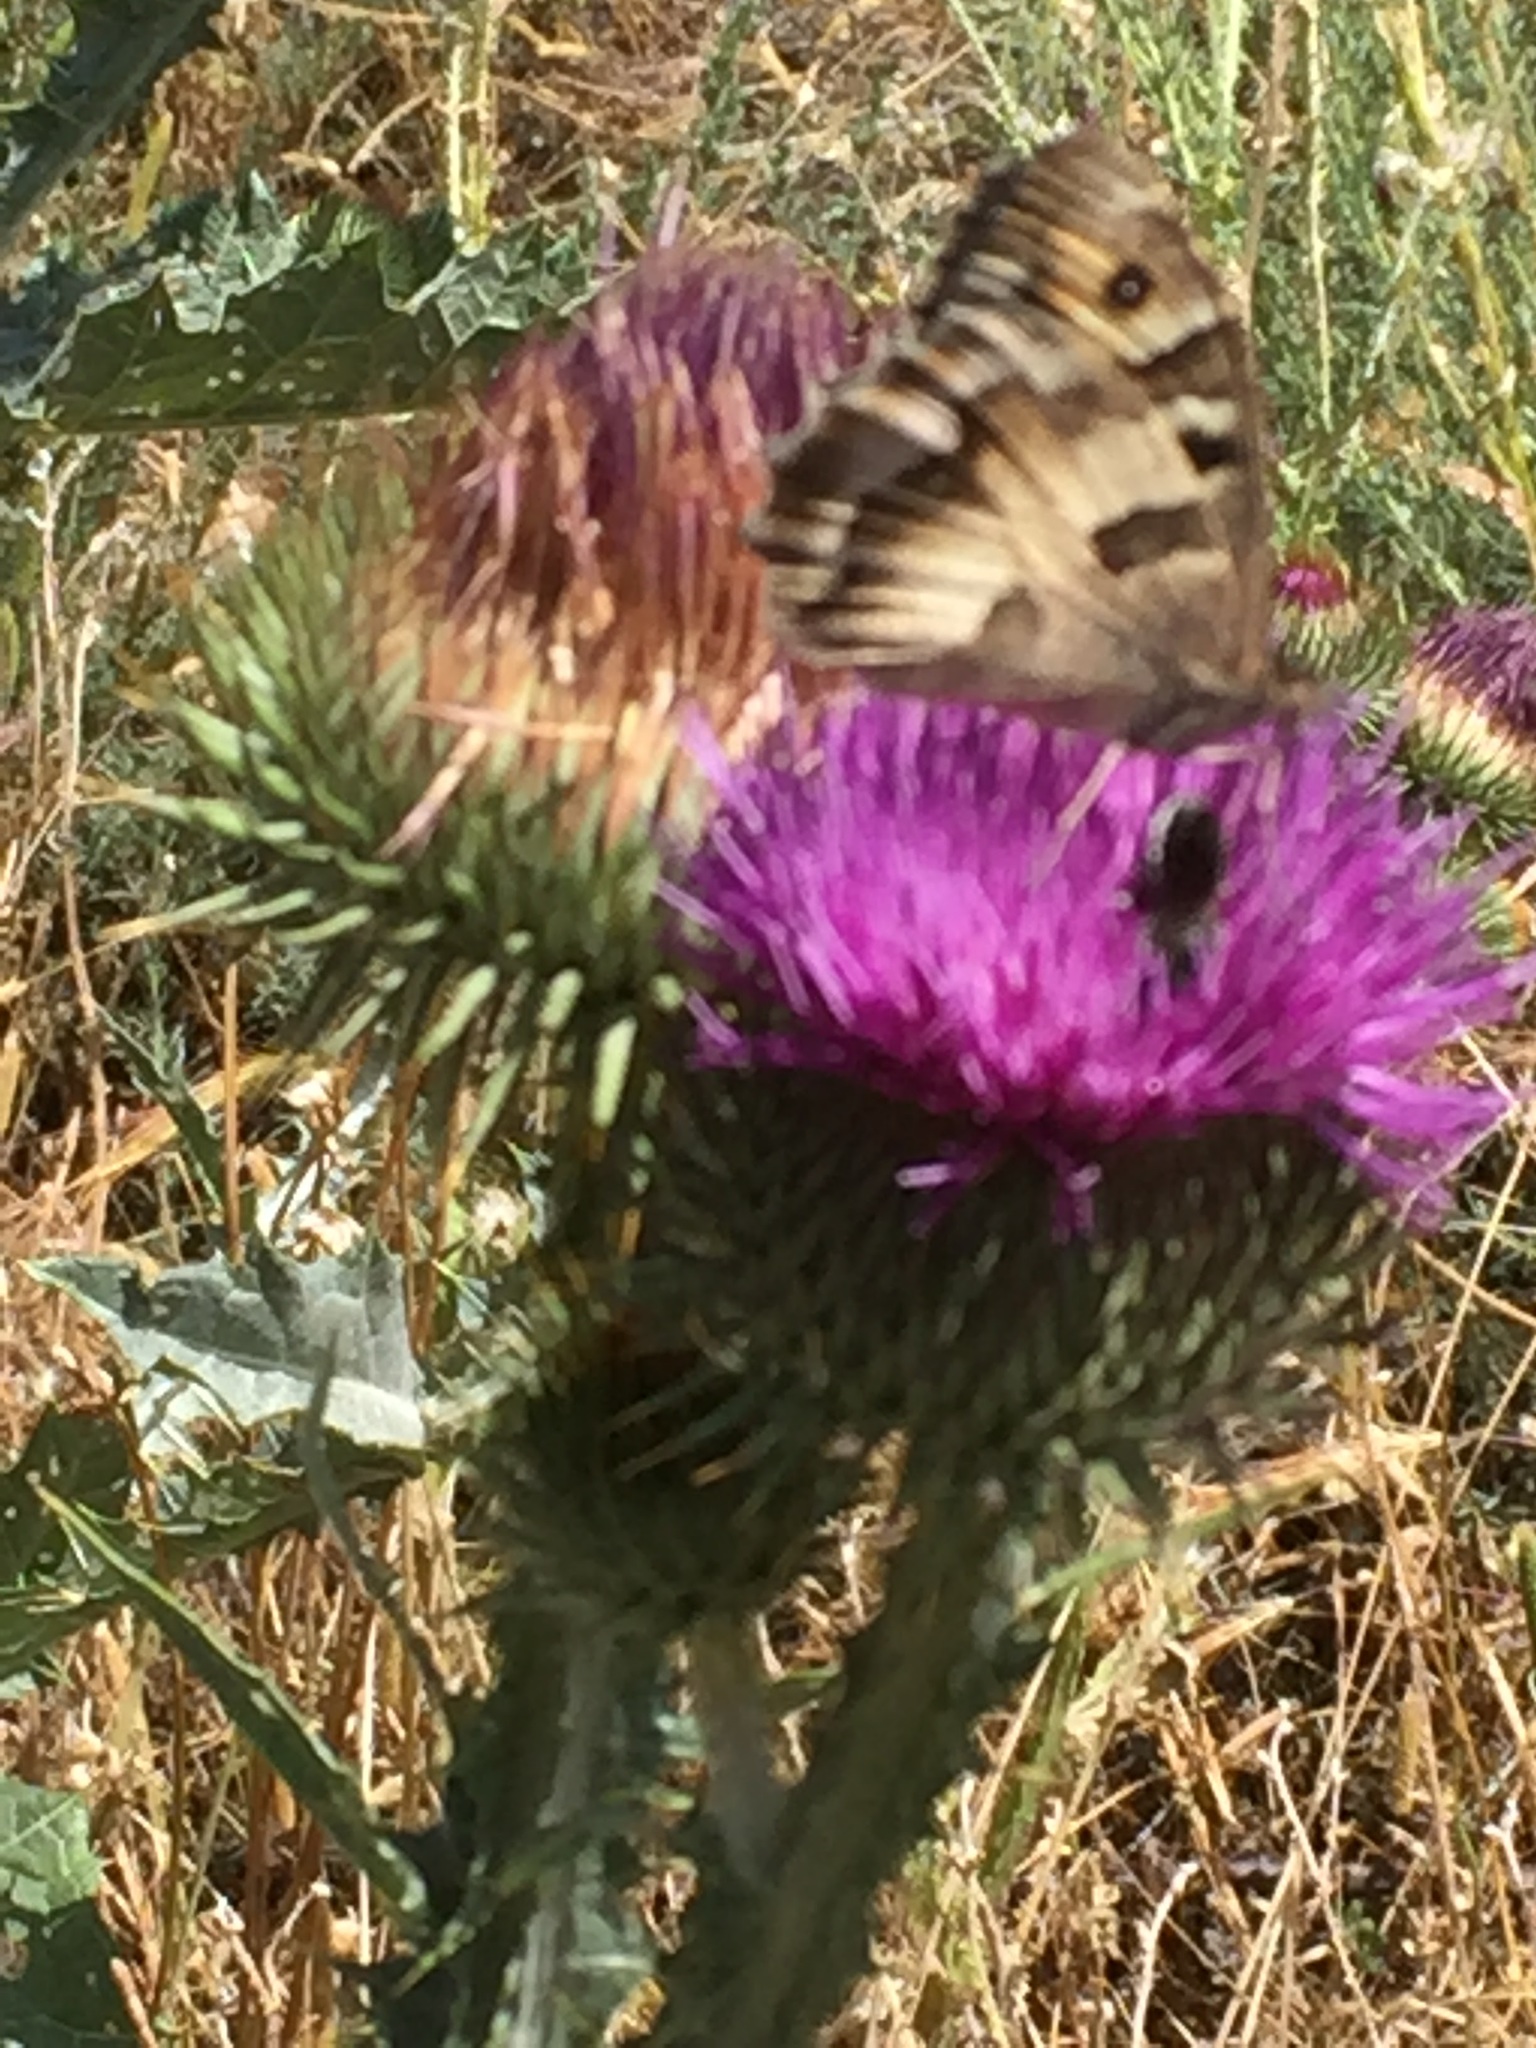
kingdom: Animalia
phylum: Arthropoda
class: Insecta
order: Lepidoptera
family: Nymphalidae
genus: Satyrus
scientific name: Satyrus briseis
